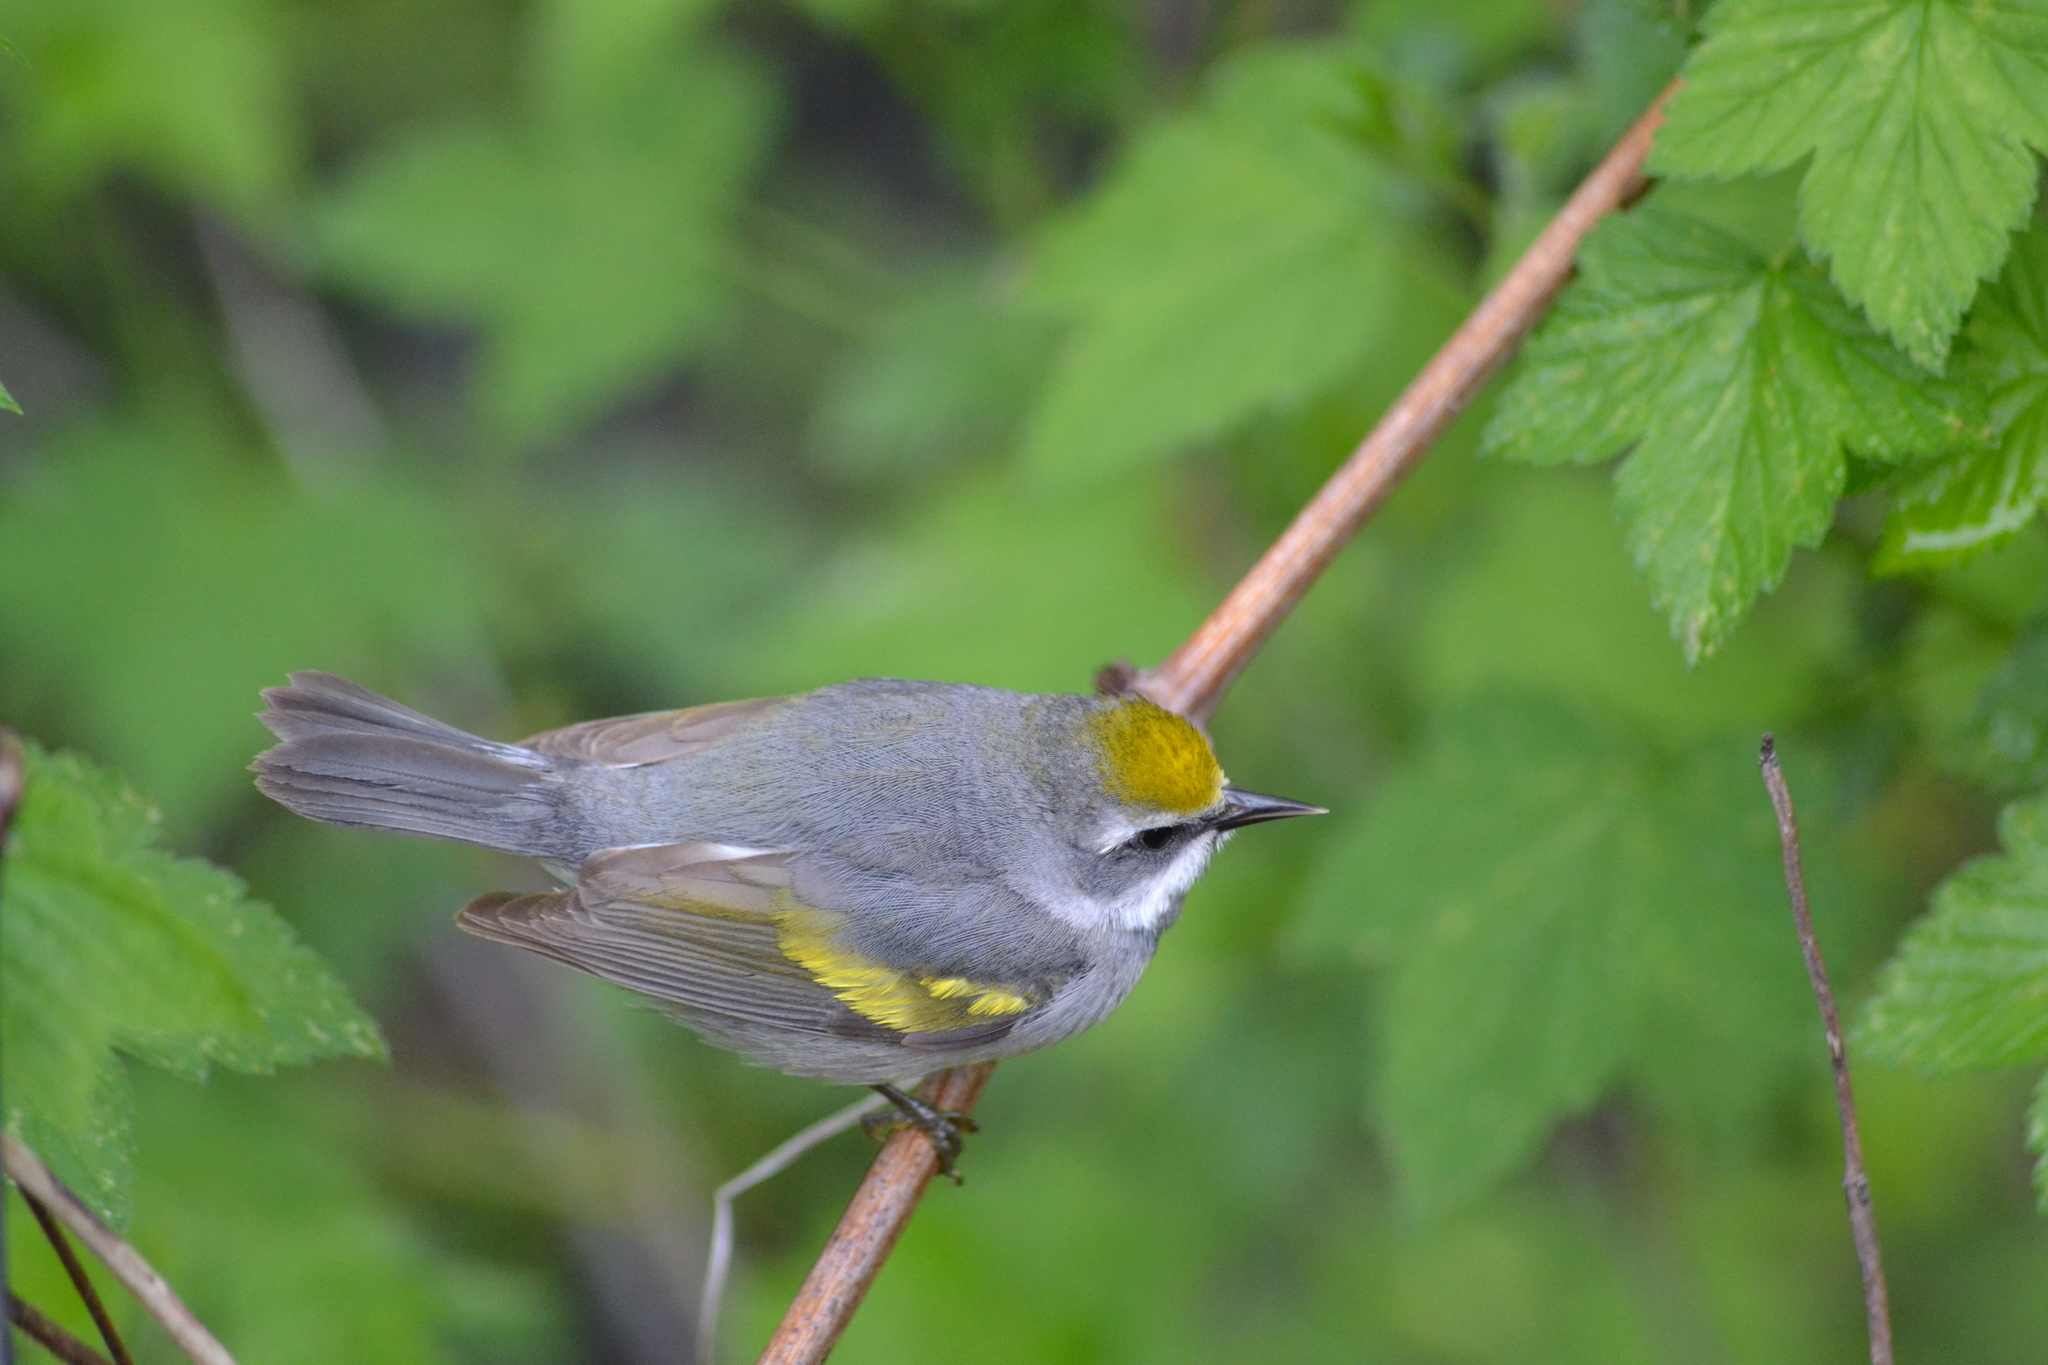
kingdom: Animalia
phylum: Chordata
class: Aves
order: Passeriformes
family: Parulidae
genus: Vermivora
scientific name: Vermivora chrysoptera
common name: Golden-winged warbler
